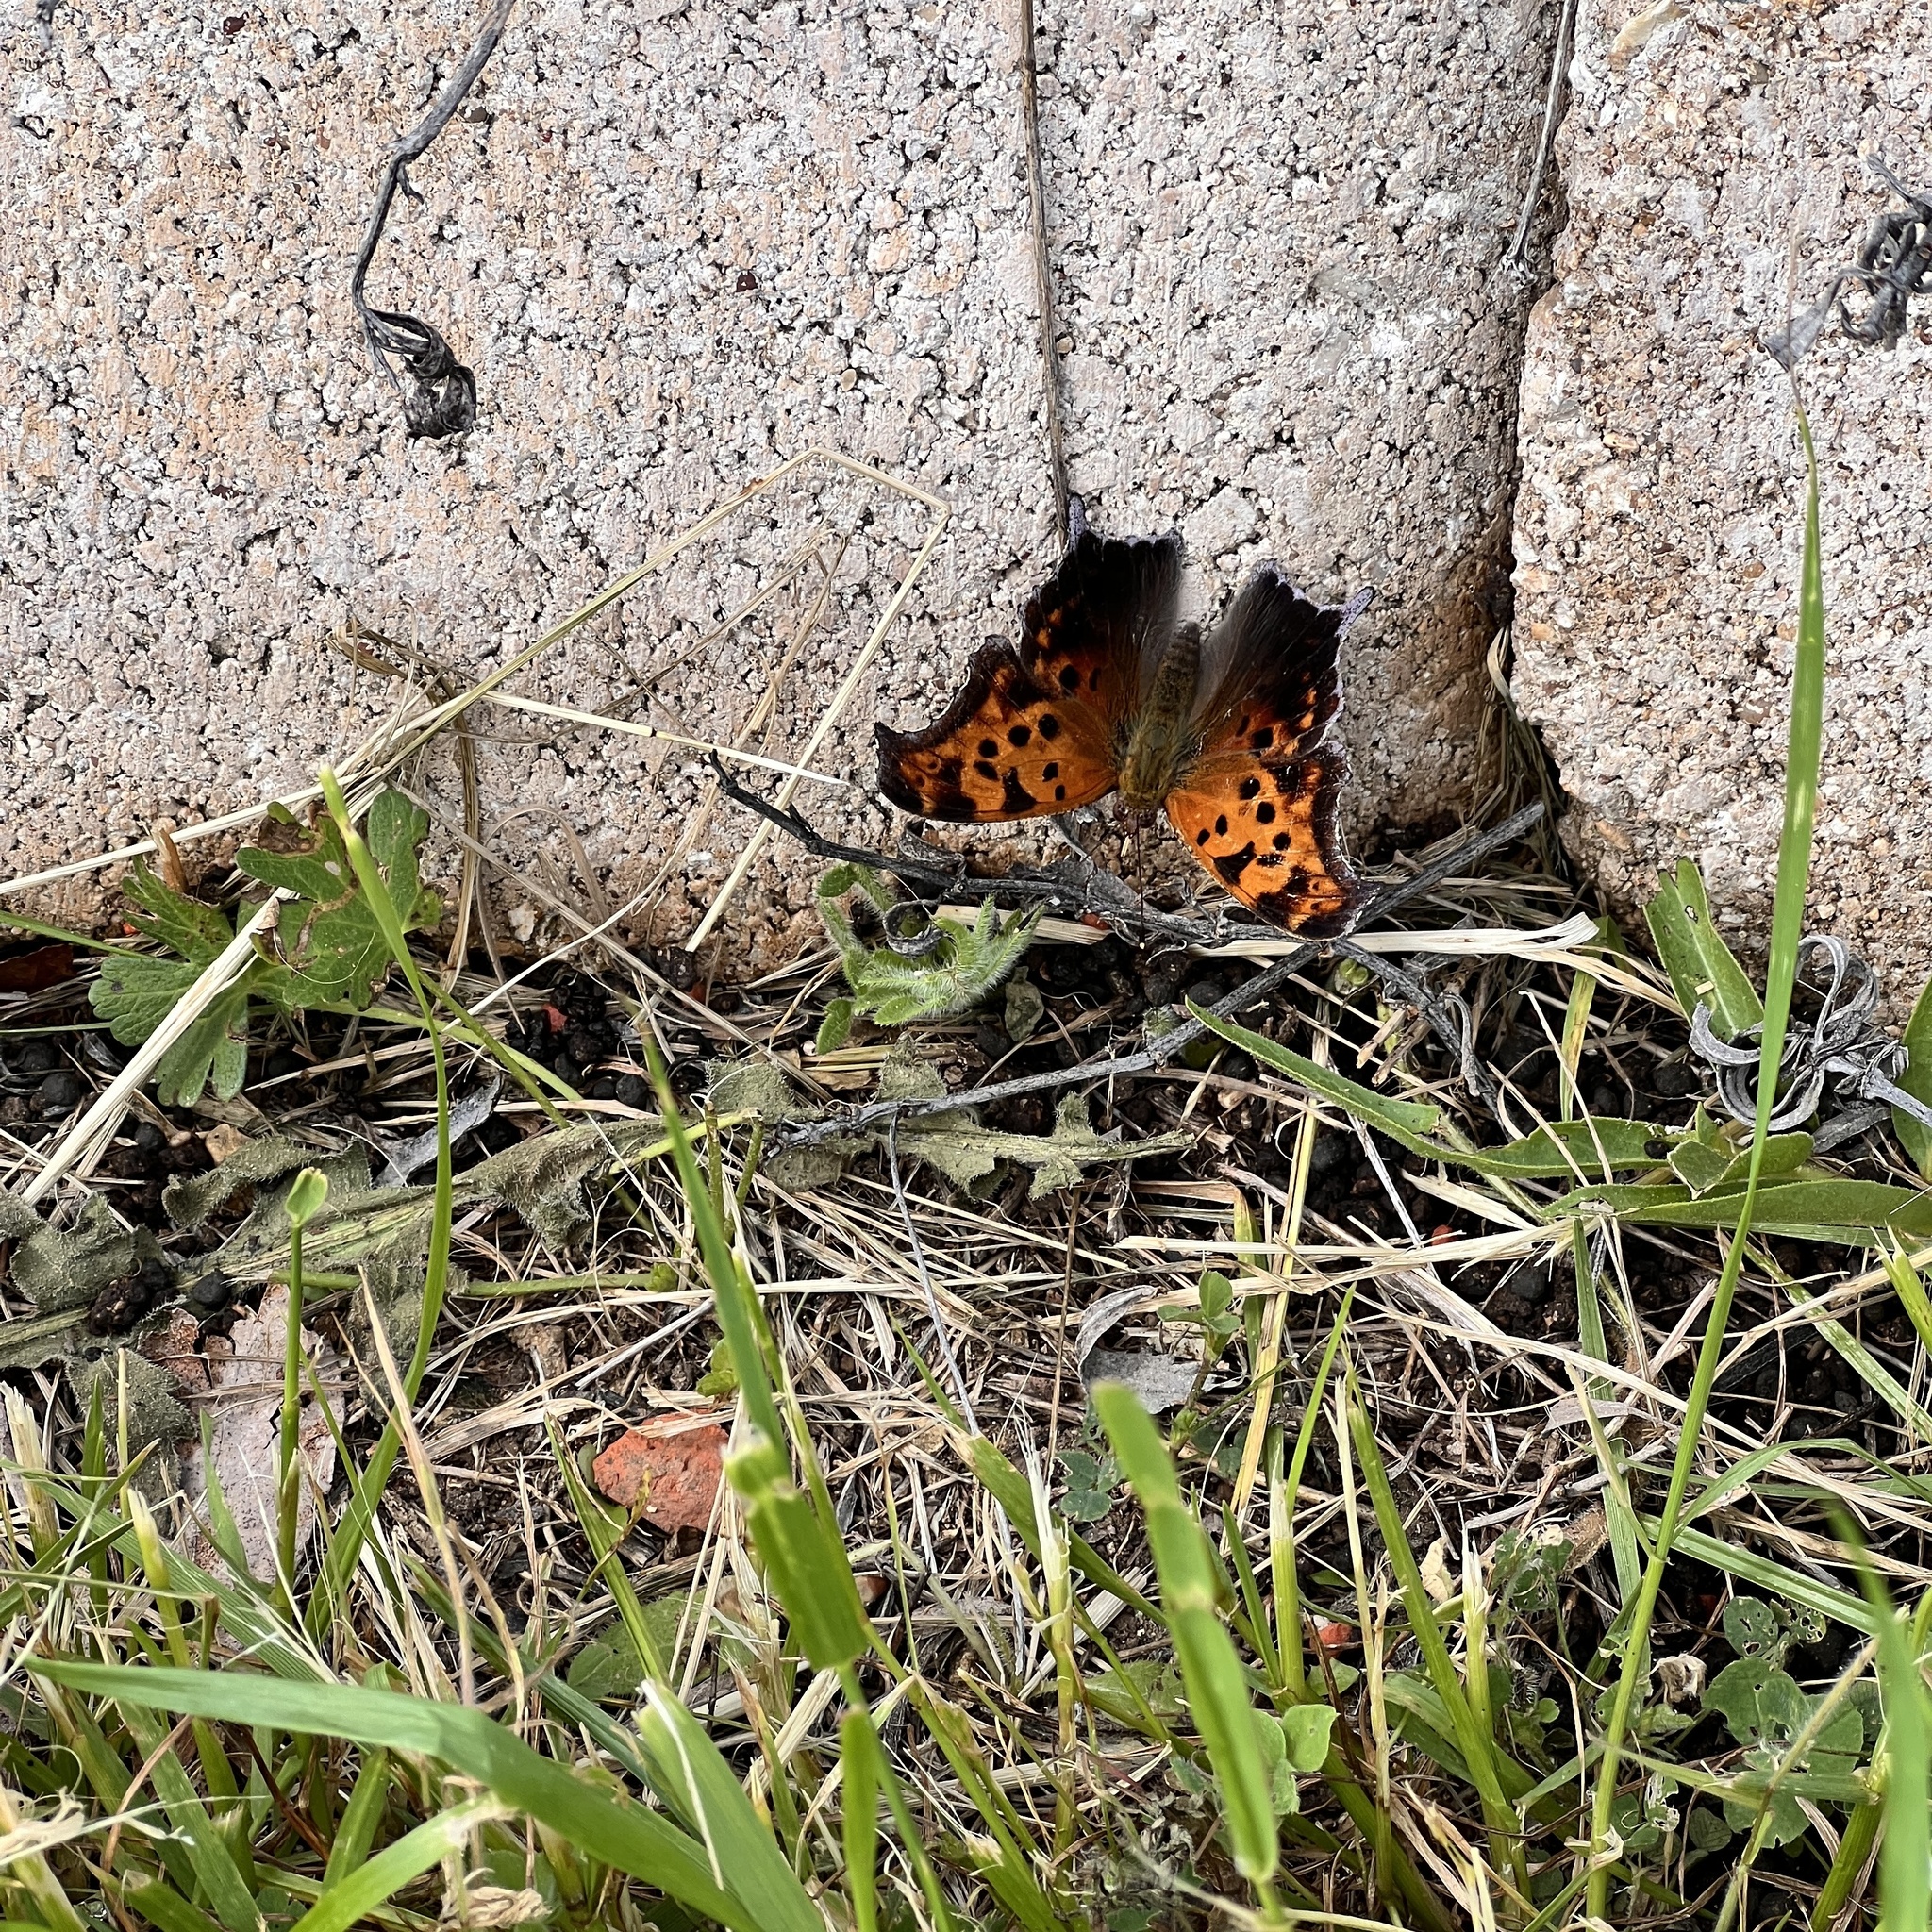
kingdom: Animalia
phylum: Arthropoda
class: Insecta
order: Lepidoptera
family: Nymphalidae
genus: Polygonia
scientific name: Polygonia interrogationis
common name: Question mark
